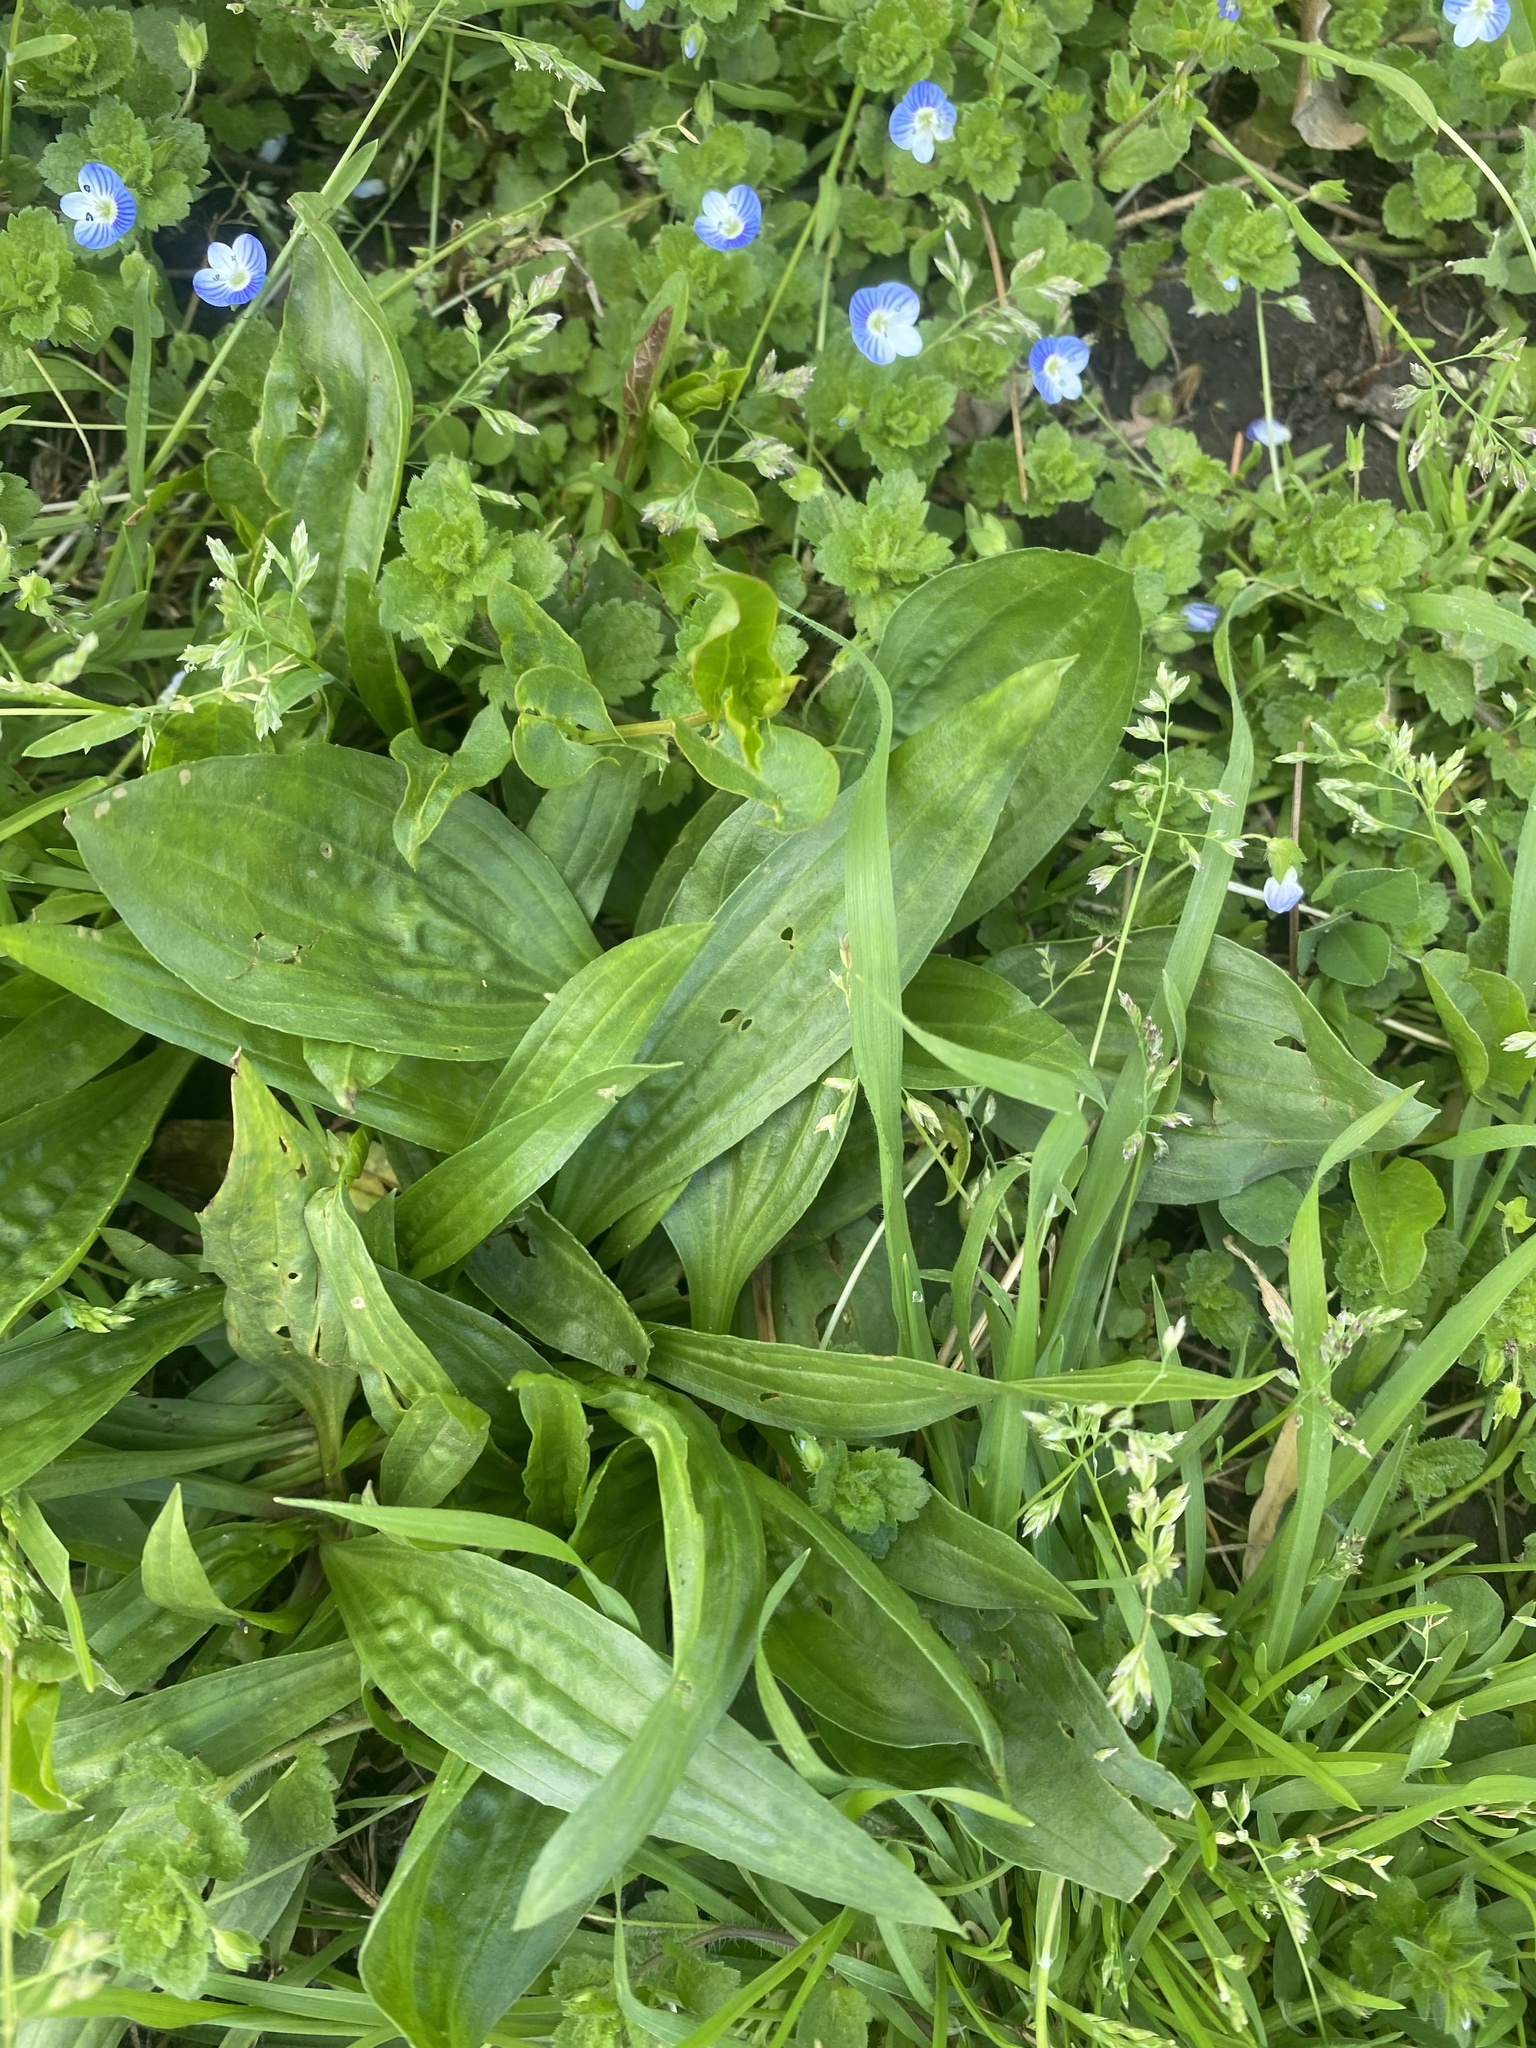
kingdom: Plantae
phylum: Tracheophyta
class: Magnoliopsida
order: Lamiales
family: Plantaginaceae
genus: Plantago
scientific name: Plantago lanceolata
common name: Ribwort plantain
